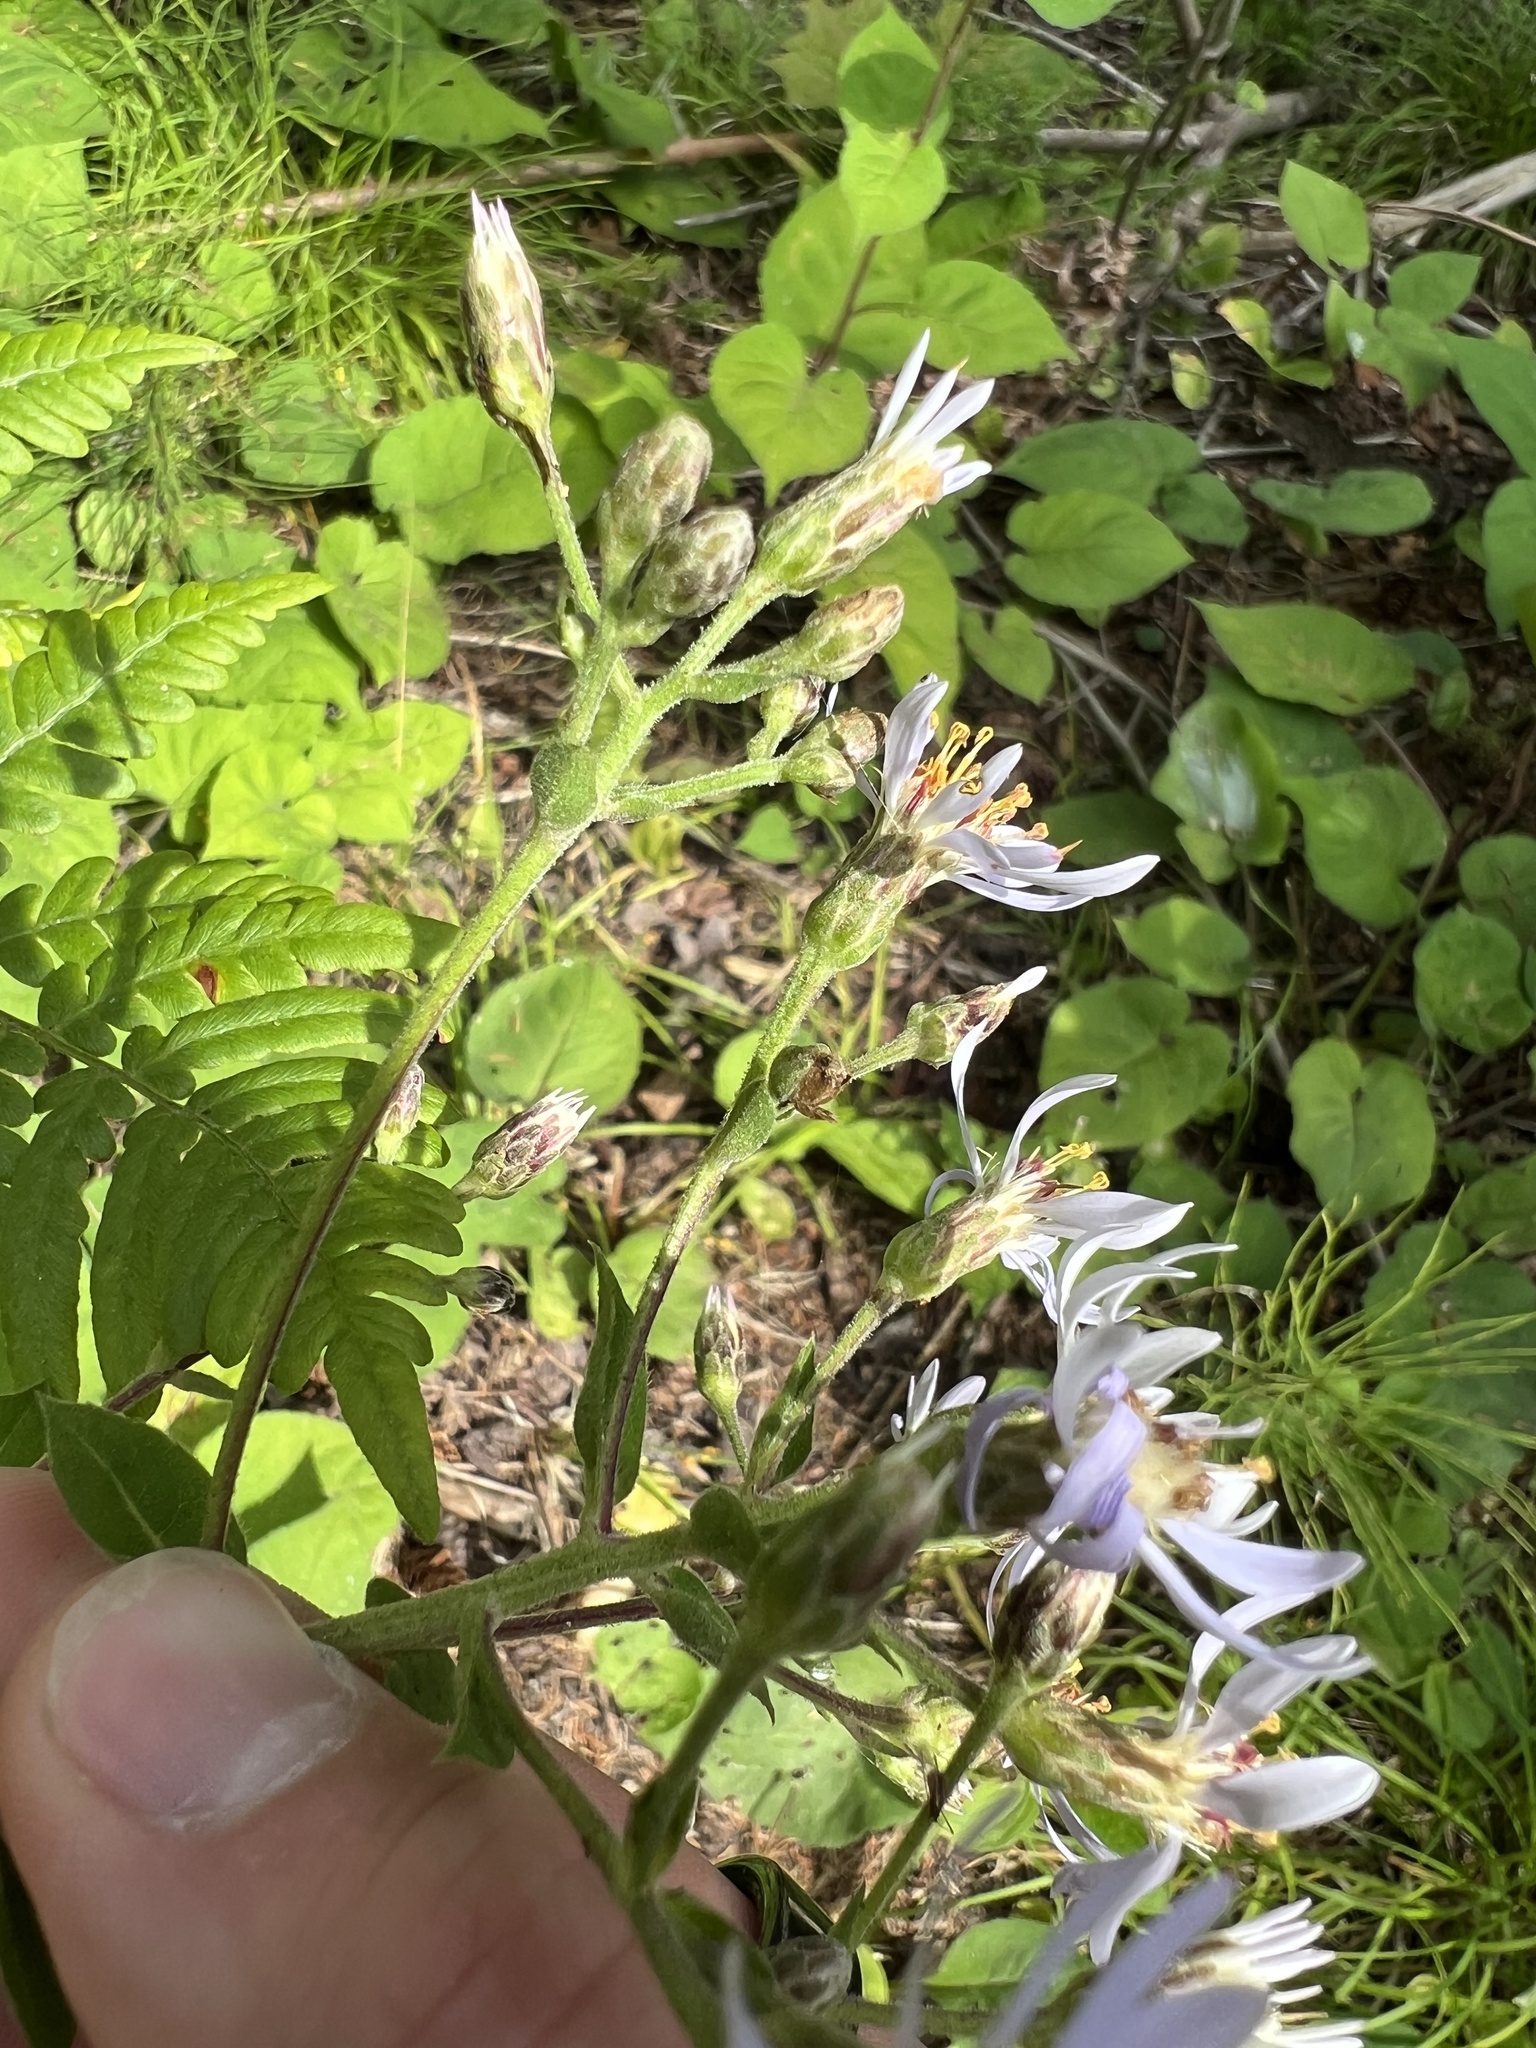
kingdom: Plantae
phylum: Tracheophyta
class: Magnoliopsida
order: Asterales
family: Asteraceae
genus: Eurybia
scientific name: Eurybia macrophylla
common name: Big-leaved aster
